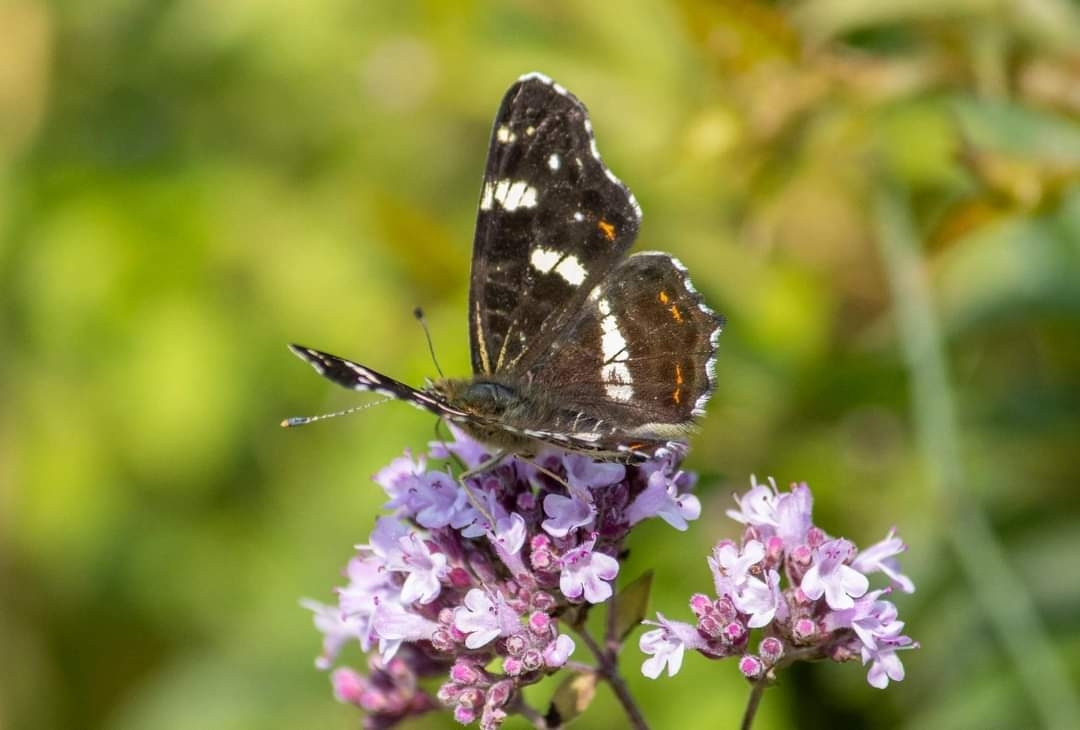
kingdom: Animalia
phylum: Arthropoda
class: Insecta
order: Lepidoptera
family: Nymphalidae
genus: Araschnia
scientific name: Araschnia levana
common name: Map butterfly
